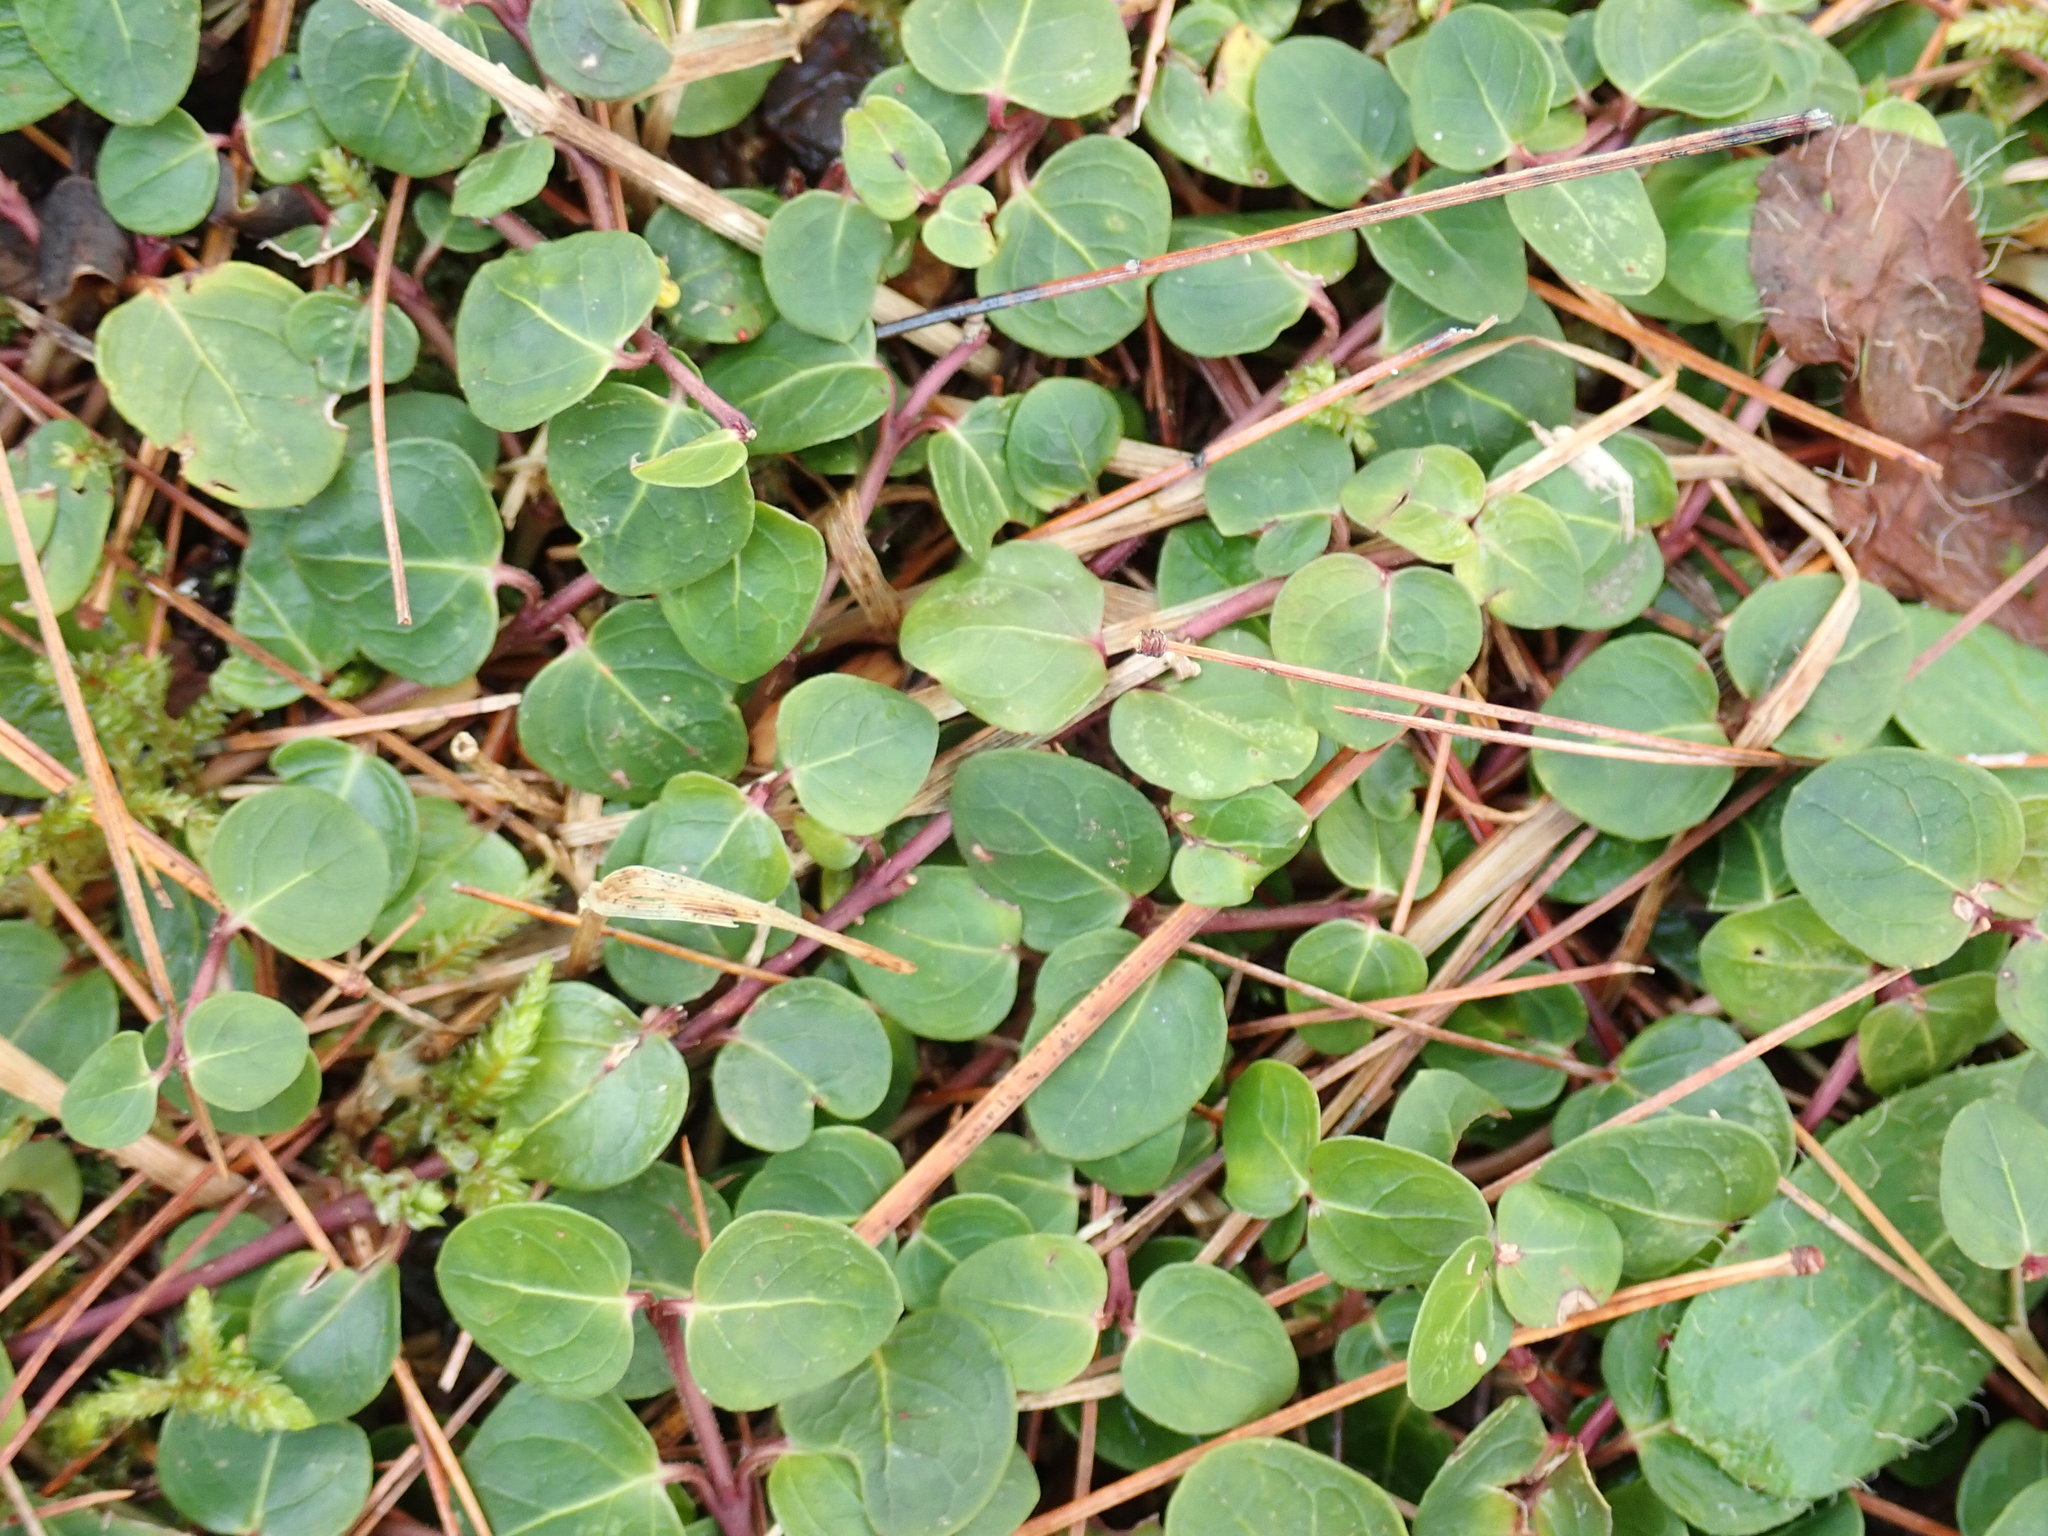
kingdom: Plantae
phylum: Tracheophyta
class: Magnoliopsida
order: Gentianales
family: Rubiaceae
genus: Mitchella
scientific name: Mitchella repens
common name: Partridge-berry
